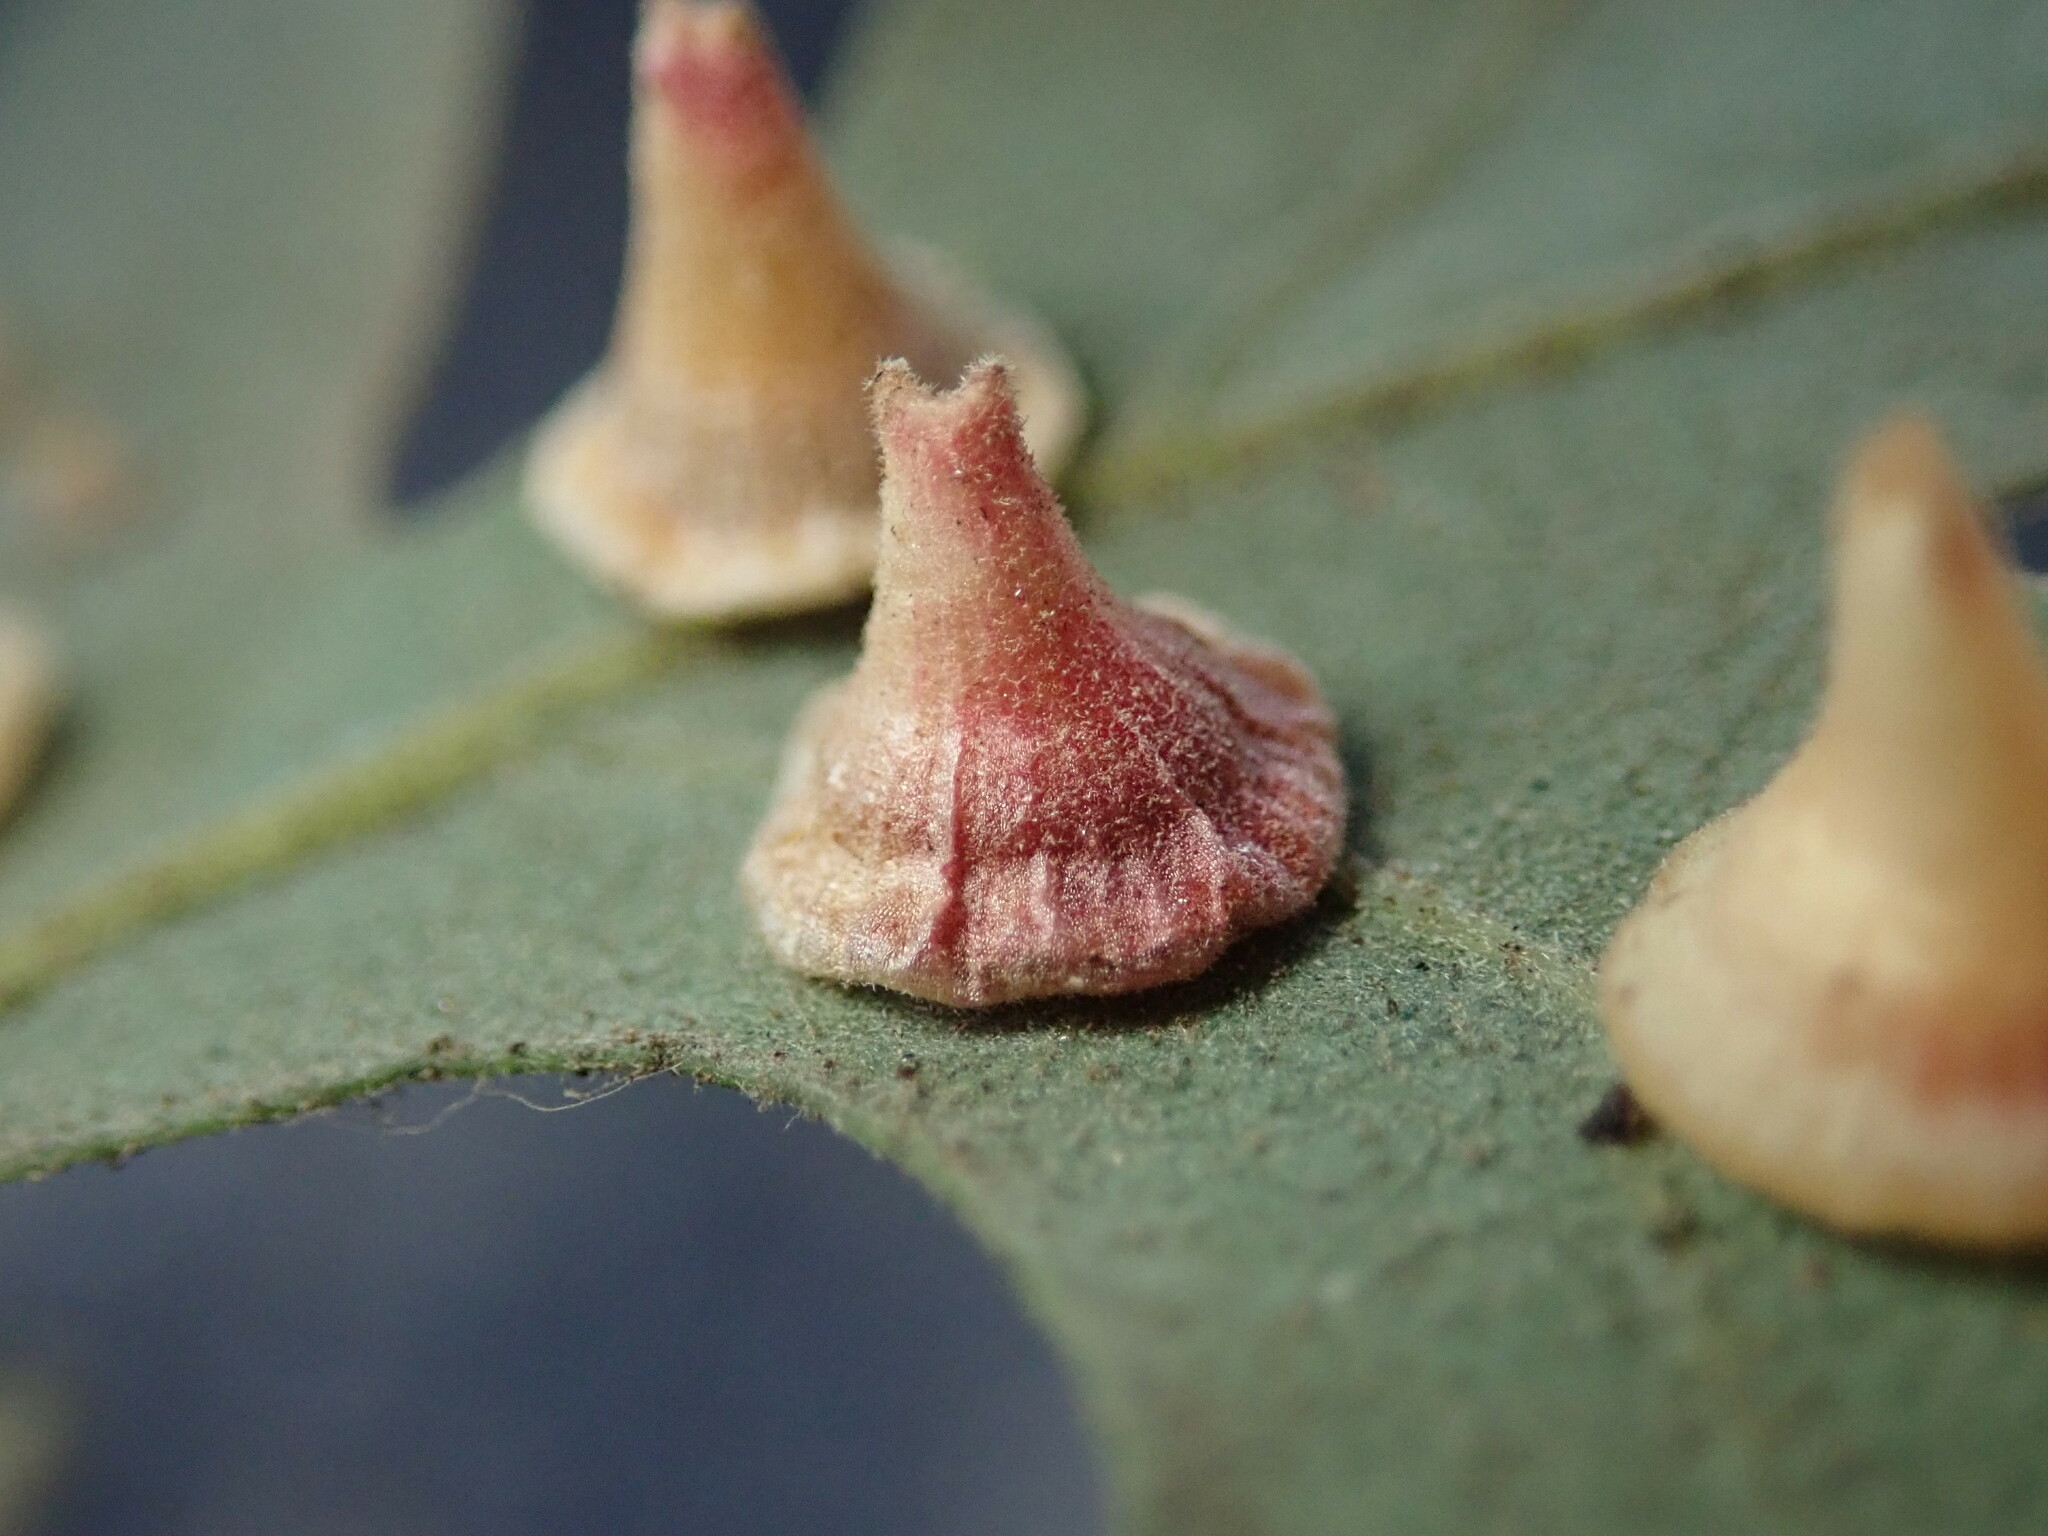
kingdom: Animalia
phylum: Arthropoda
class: Insecta
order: Hymenoptera
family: Cynipidae
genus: Andricus
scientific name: Andricus
